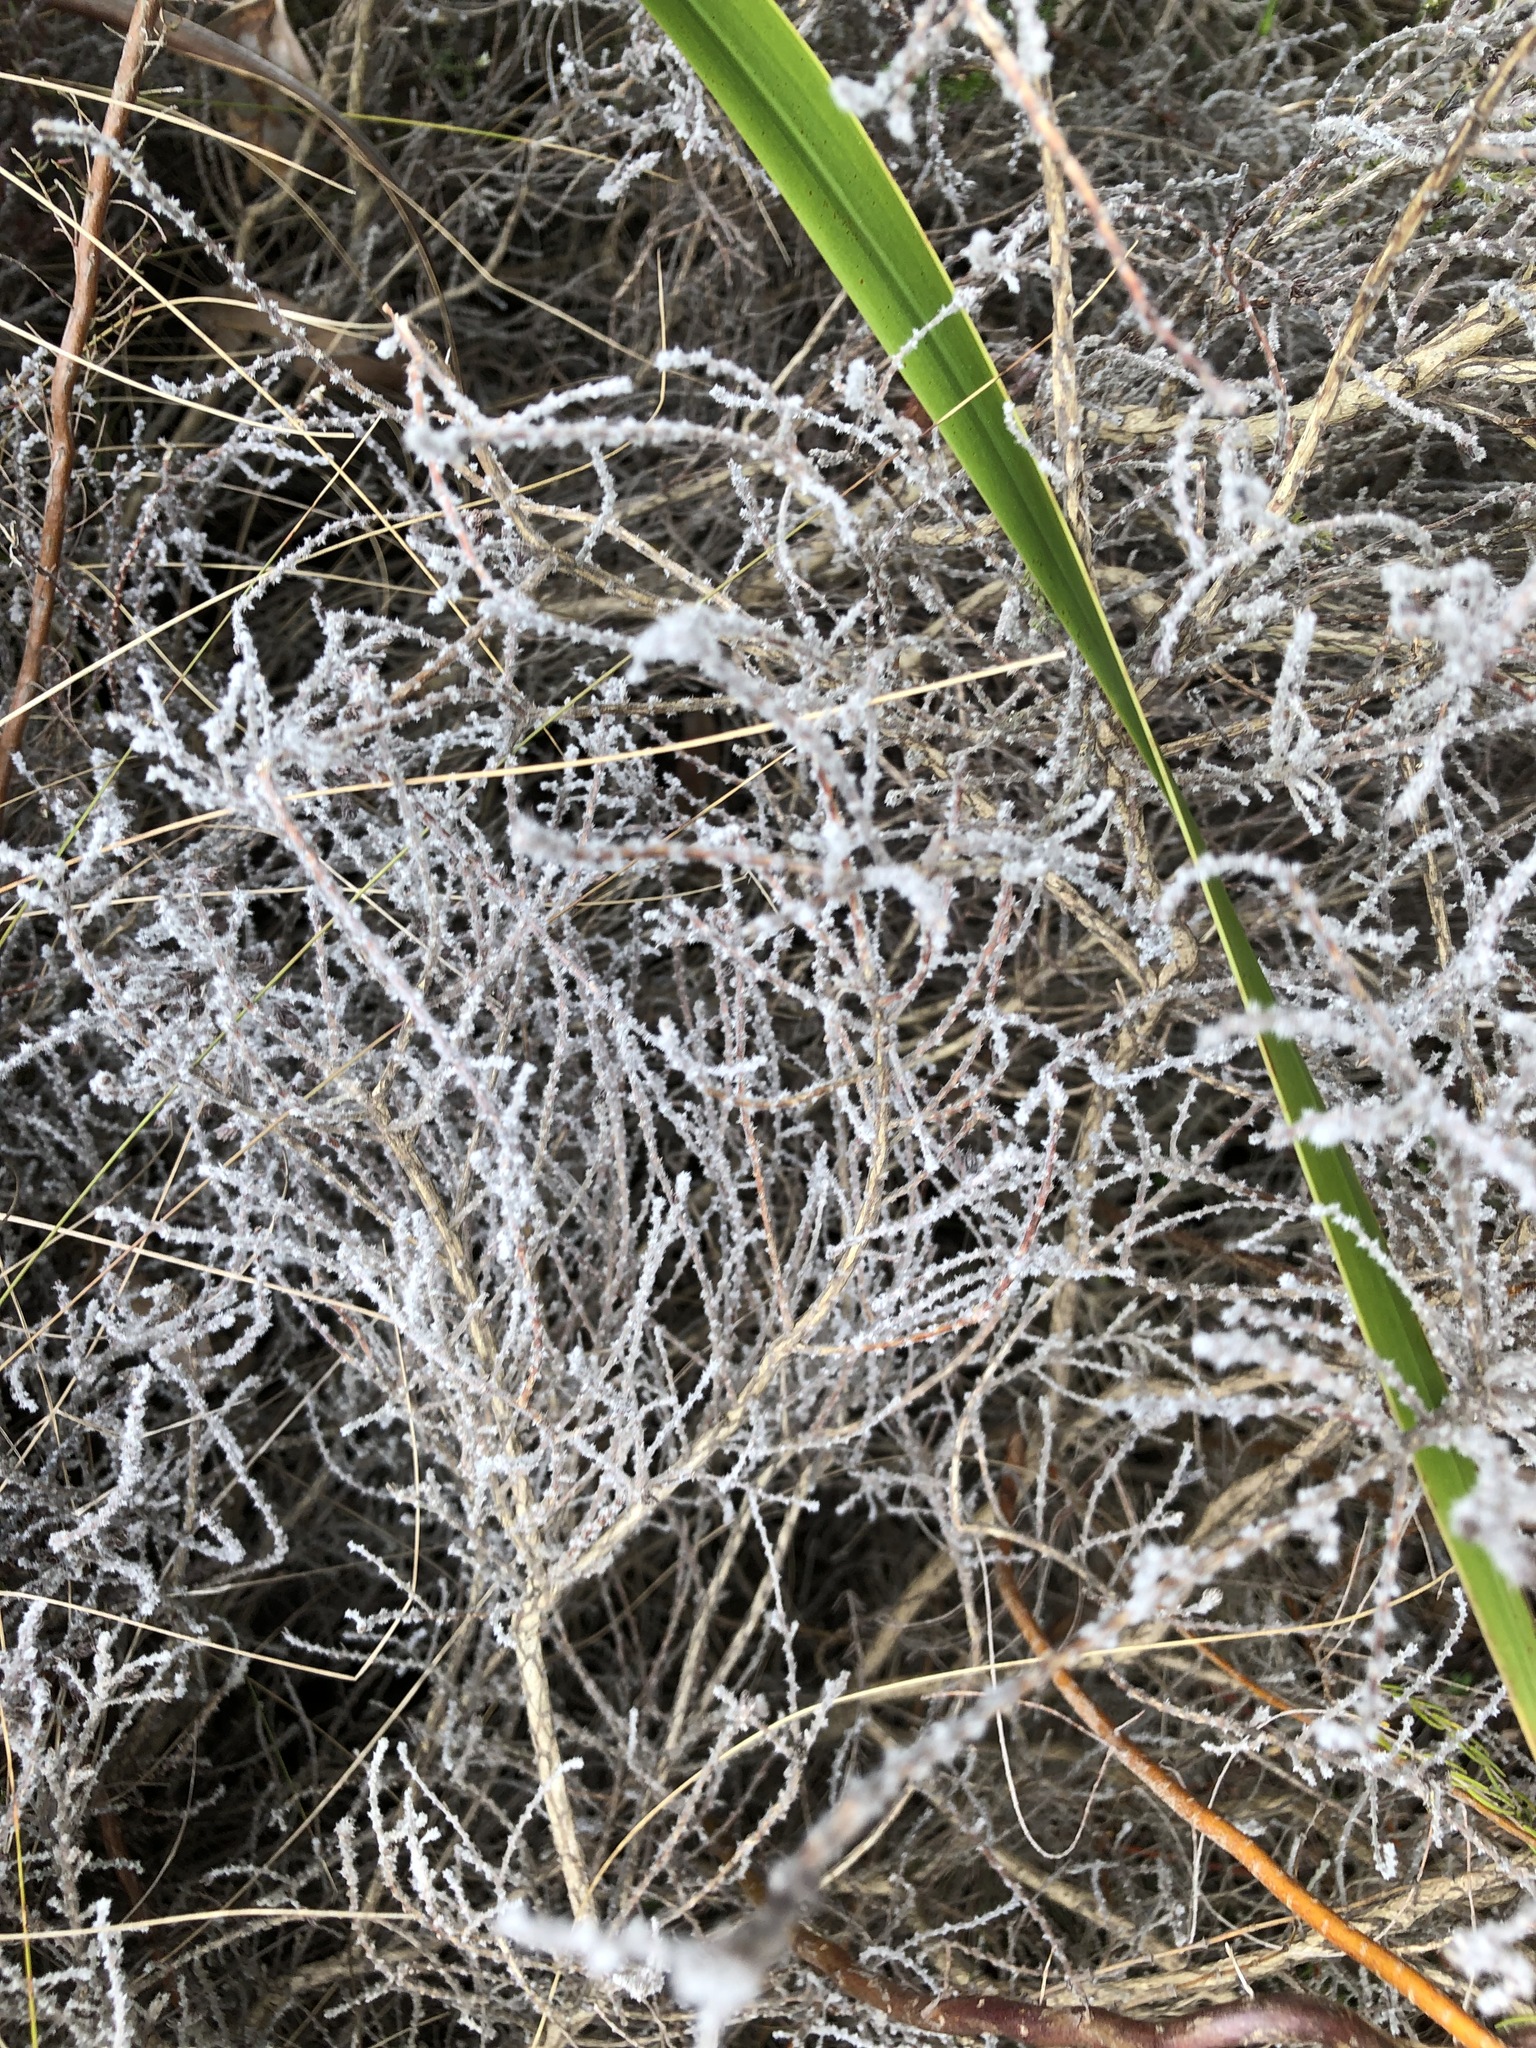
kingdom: Plantae
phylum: Tracheophyta
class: Magnoliopsida
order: Asterales
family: Asteraceae
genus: Seriphium
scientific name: Seriphium plumosum
